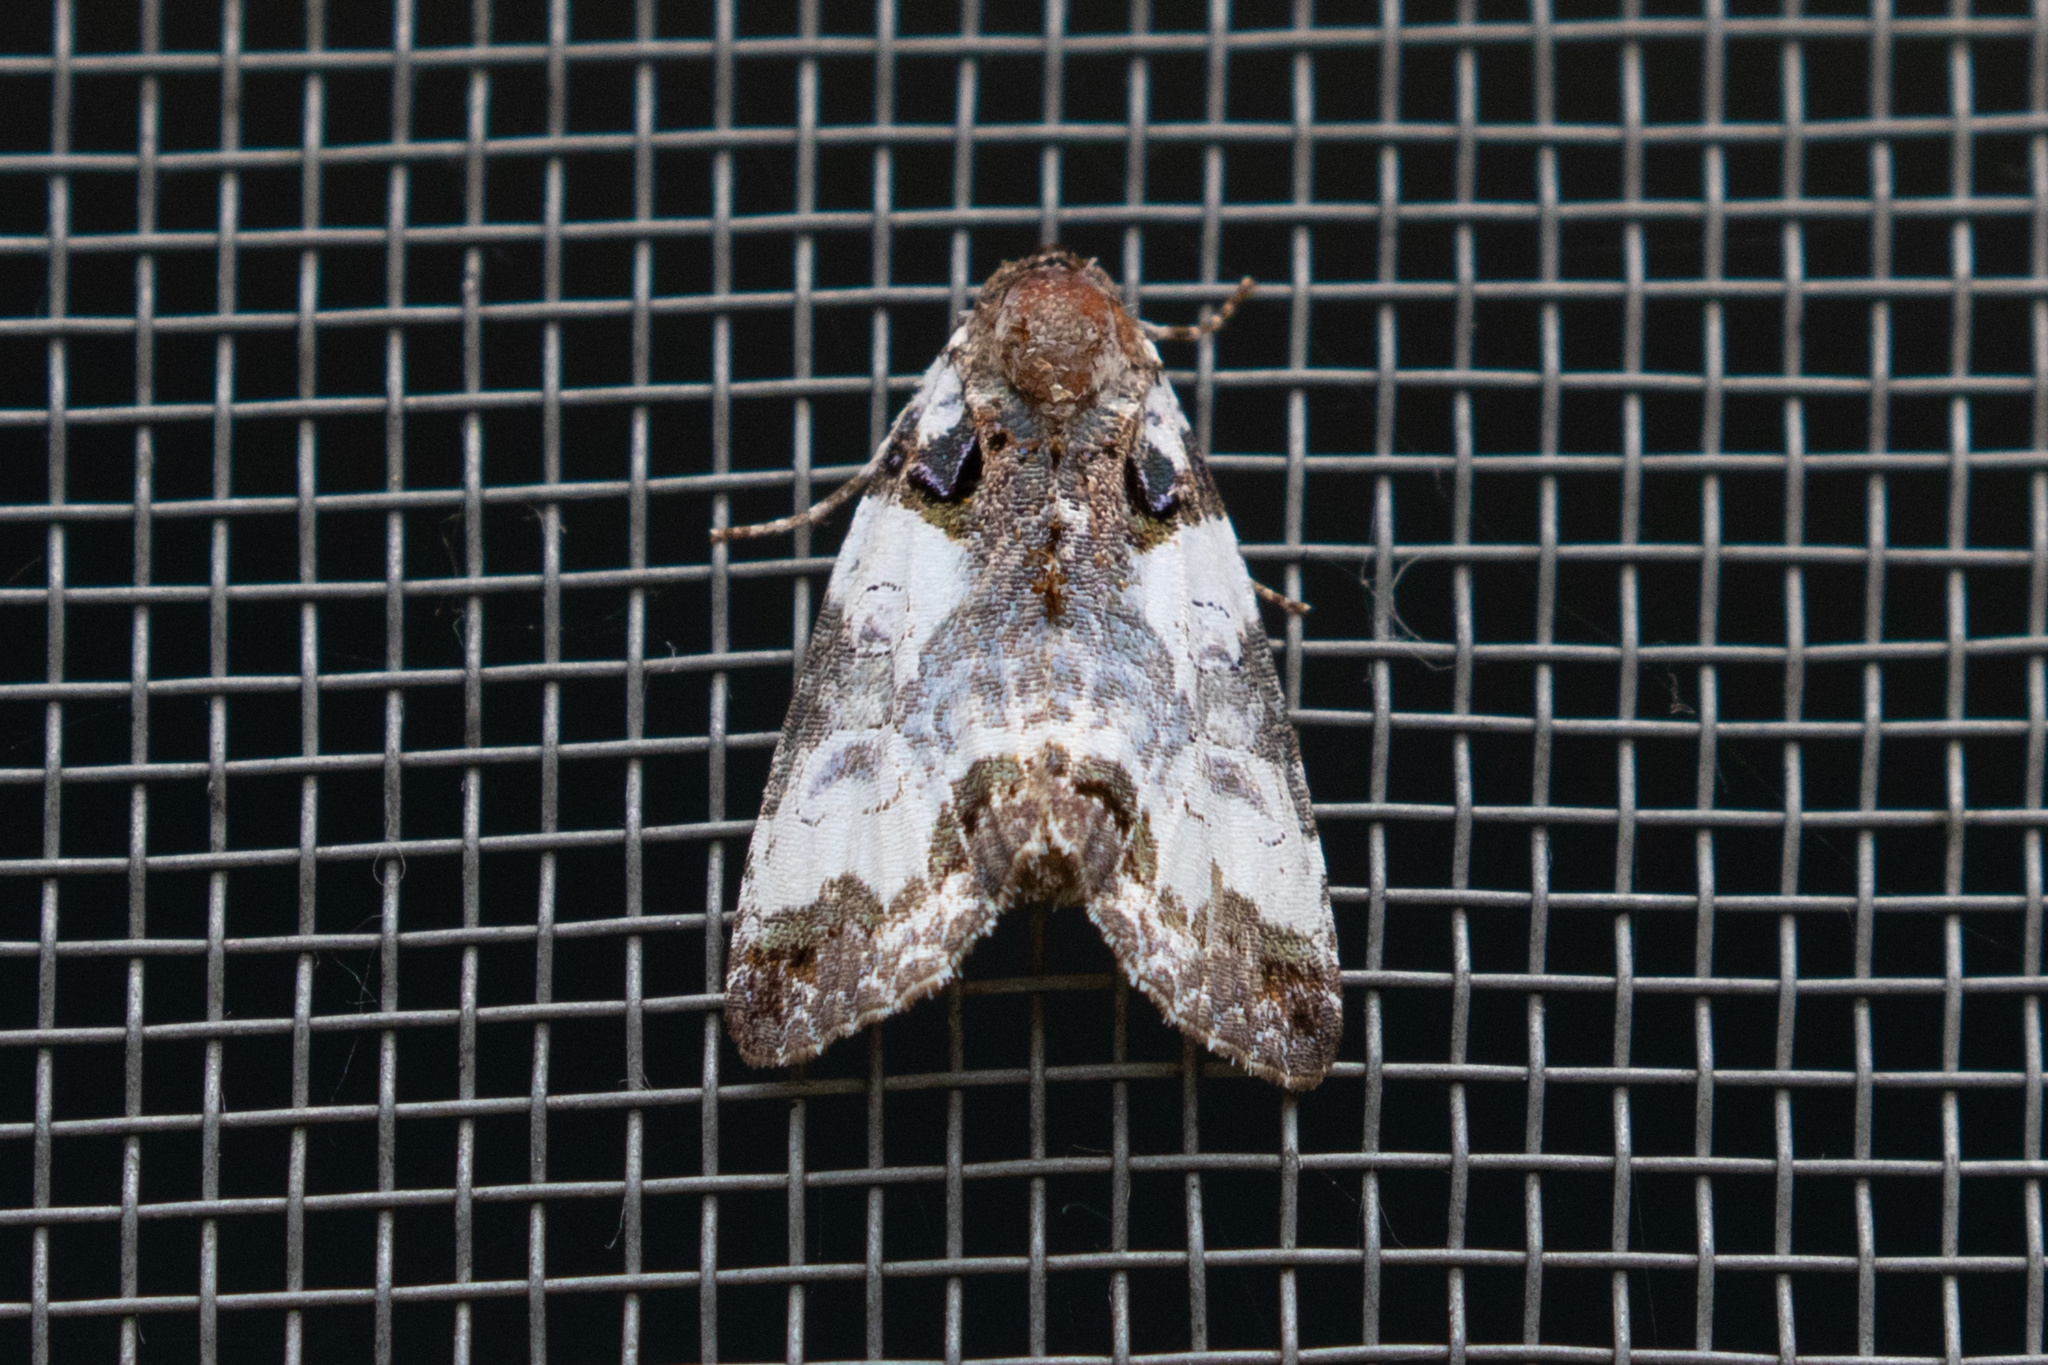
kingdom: Animalia
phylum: Arthropoda
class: Insecta
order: Lepidoptera
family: Noctuidae
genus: Cerma
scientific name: Cerma cerintha
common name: Tufted bird-dropping moth
